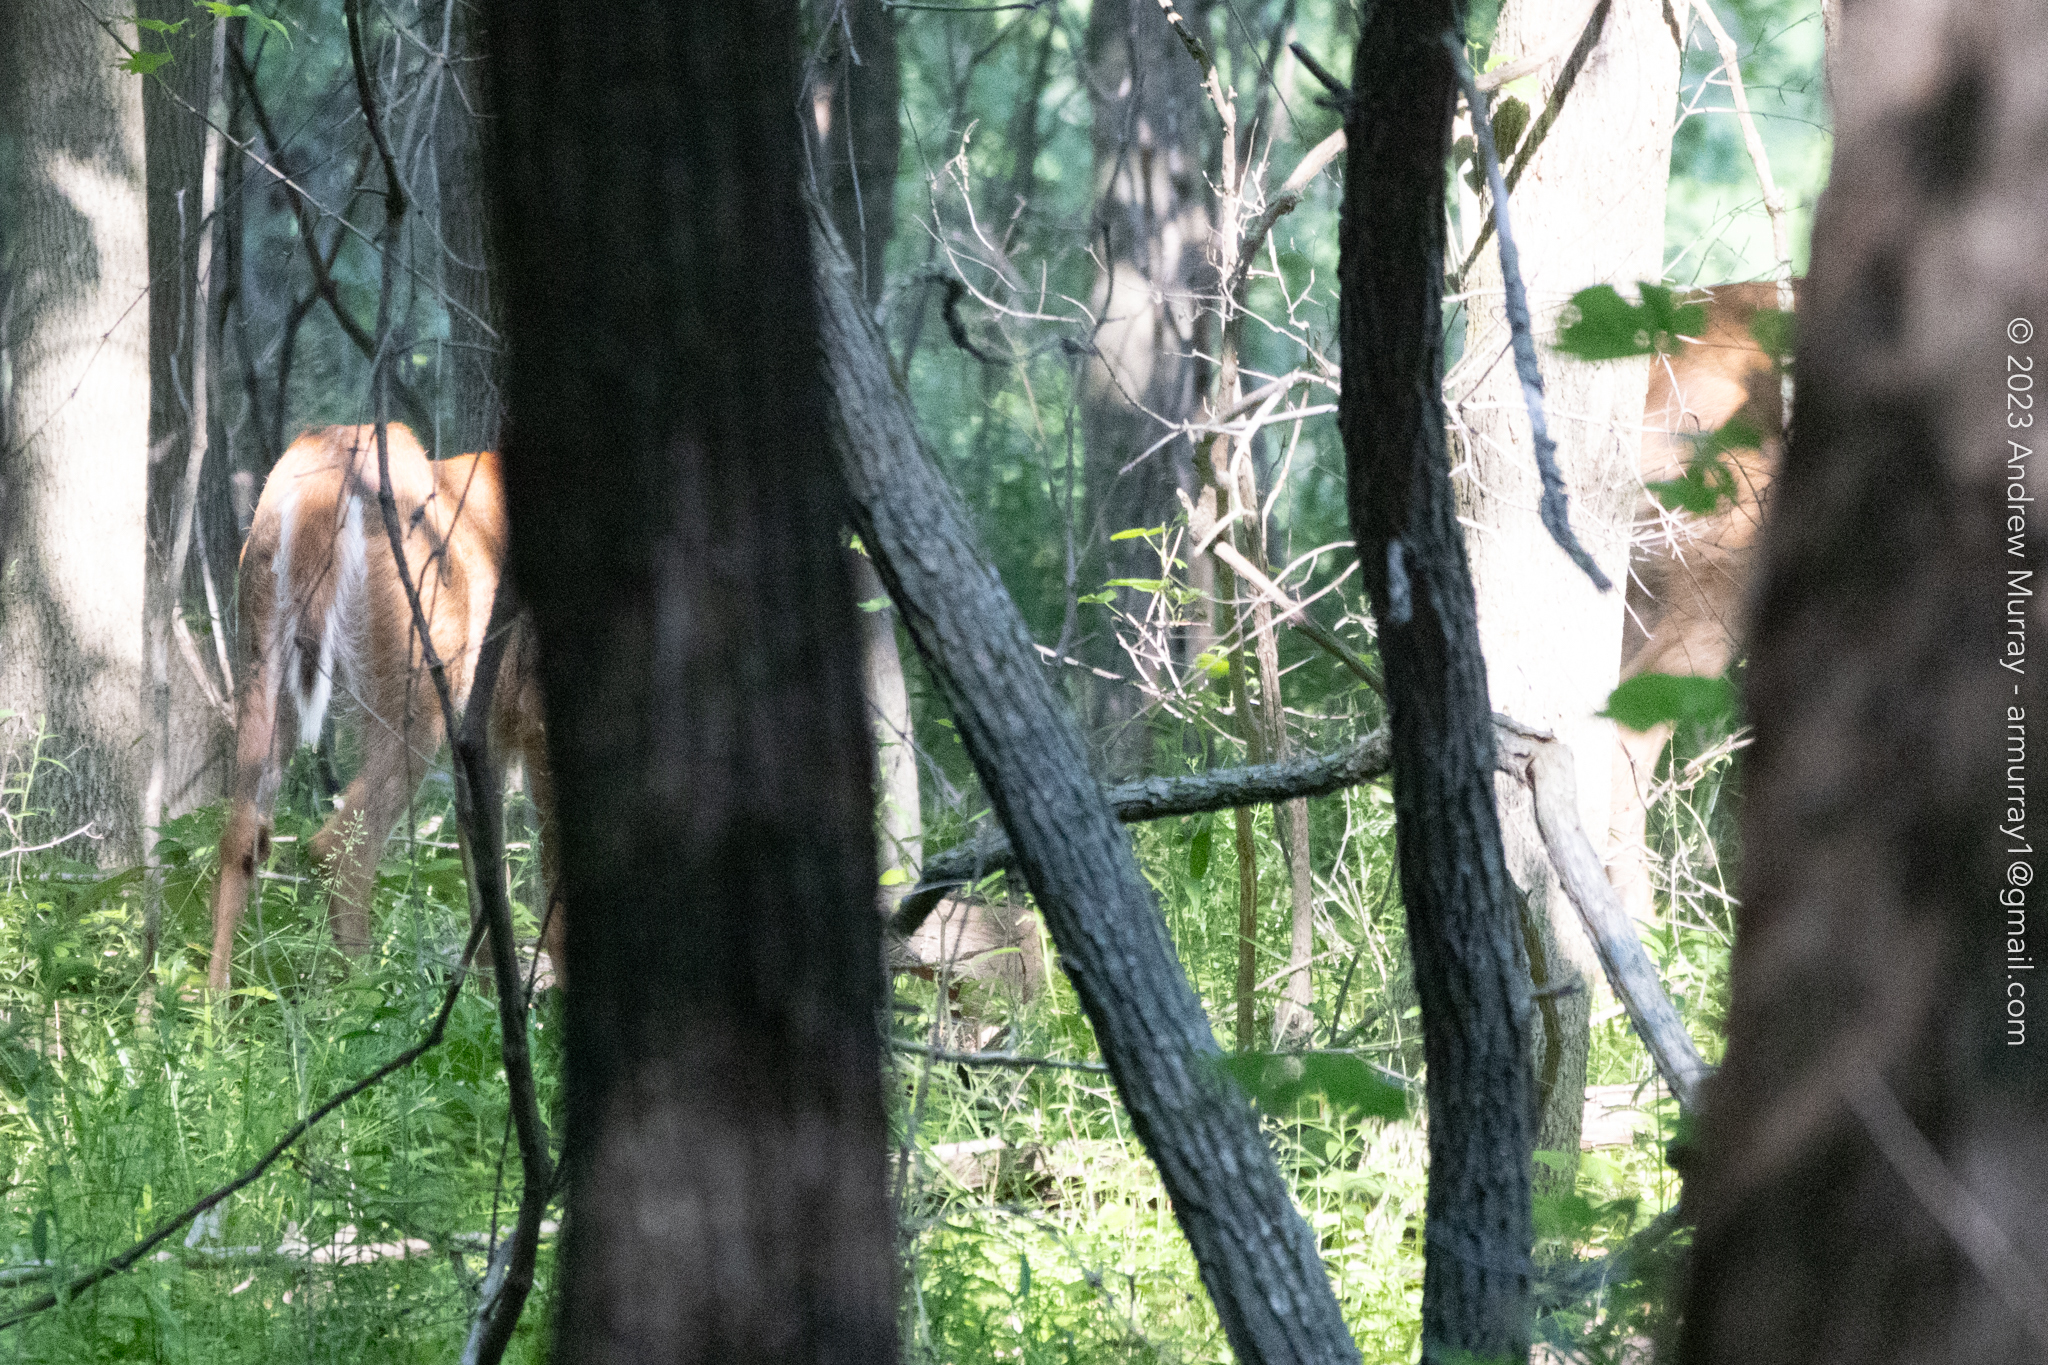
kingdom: Animalia
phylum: Chordata
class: Mammalia
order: Artiodactyla
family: Cervidae
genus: Odocoileus
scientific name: Odocoileus virginianus
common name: White-tailed deer
